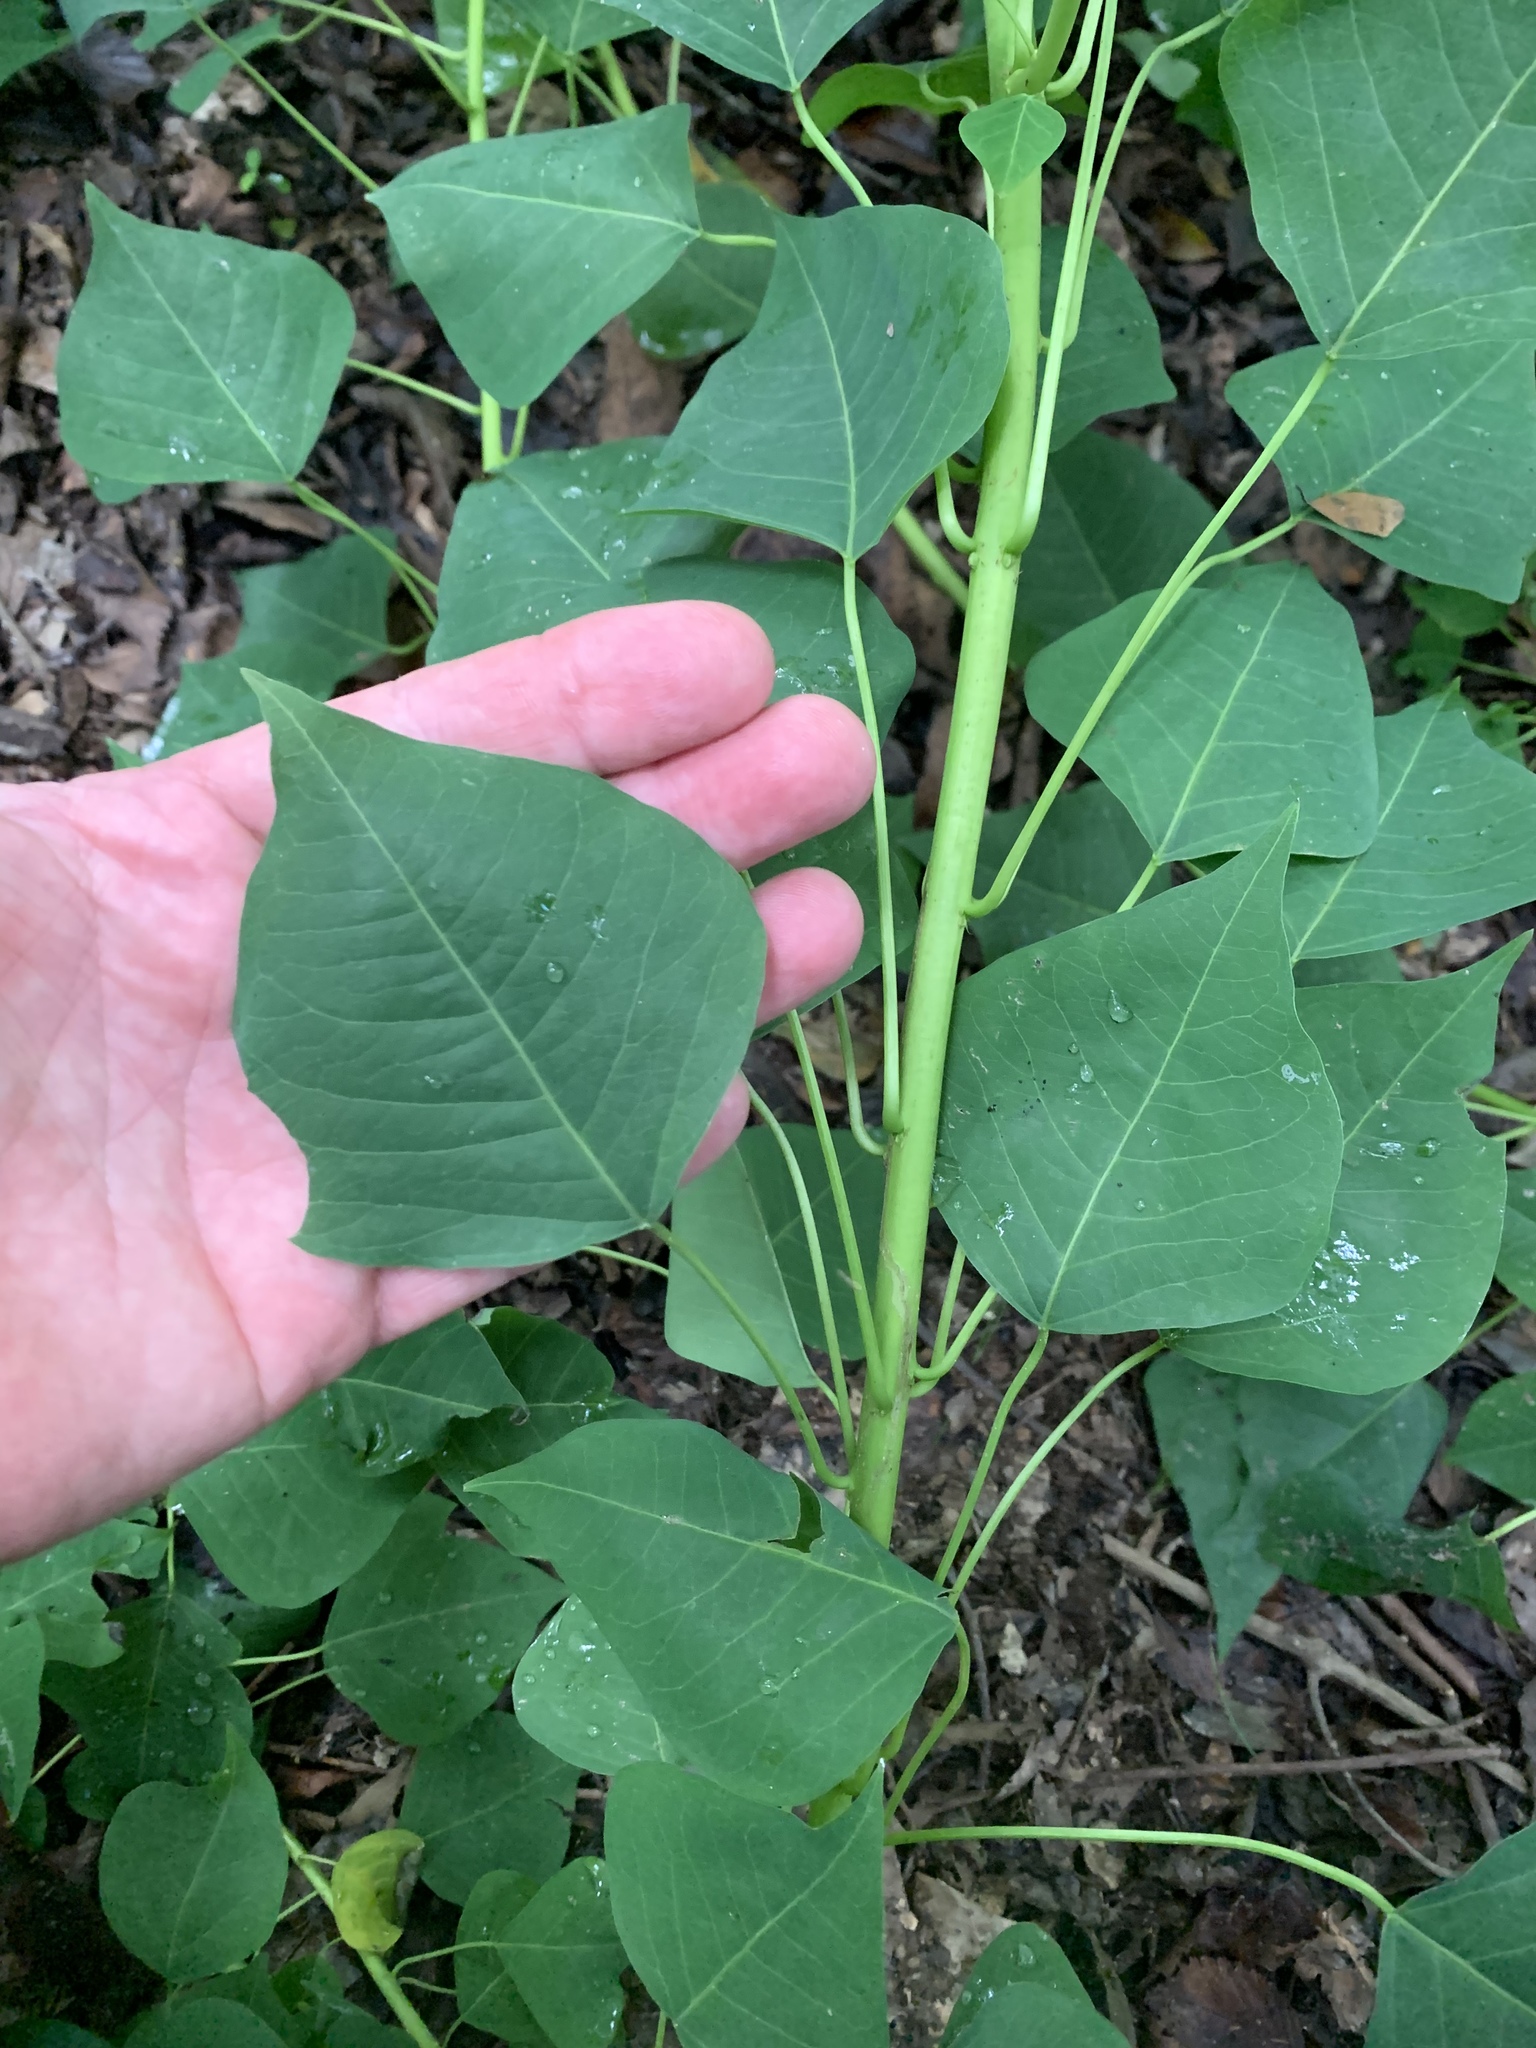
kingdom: Plantae
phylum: Tracheophyta
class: Magnoliopsida
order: Malpighiales
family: Euphorbiaceae
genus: Triadica
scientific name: Triadica sebifera
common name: Chinese tallow
